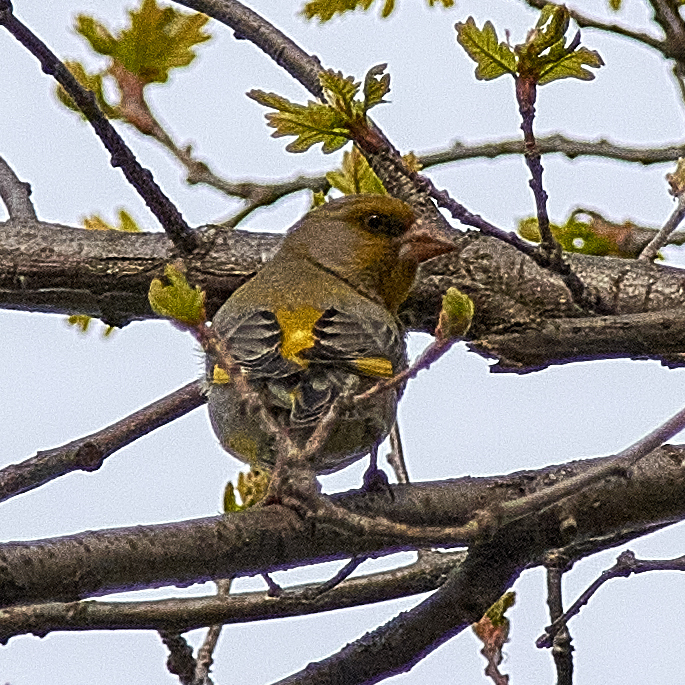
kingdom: Plantae
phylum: Tracheophyta
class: Liliopsida
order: Poales
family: Poaceae
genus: Chloris
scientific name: Chloris chloris
